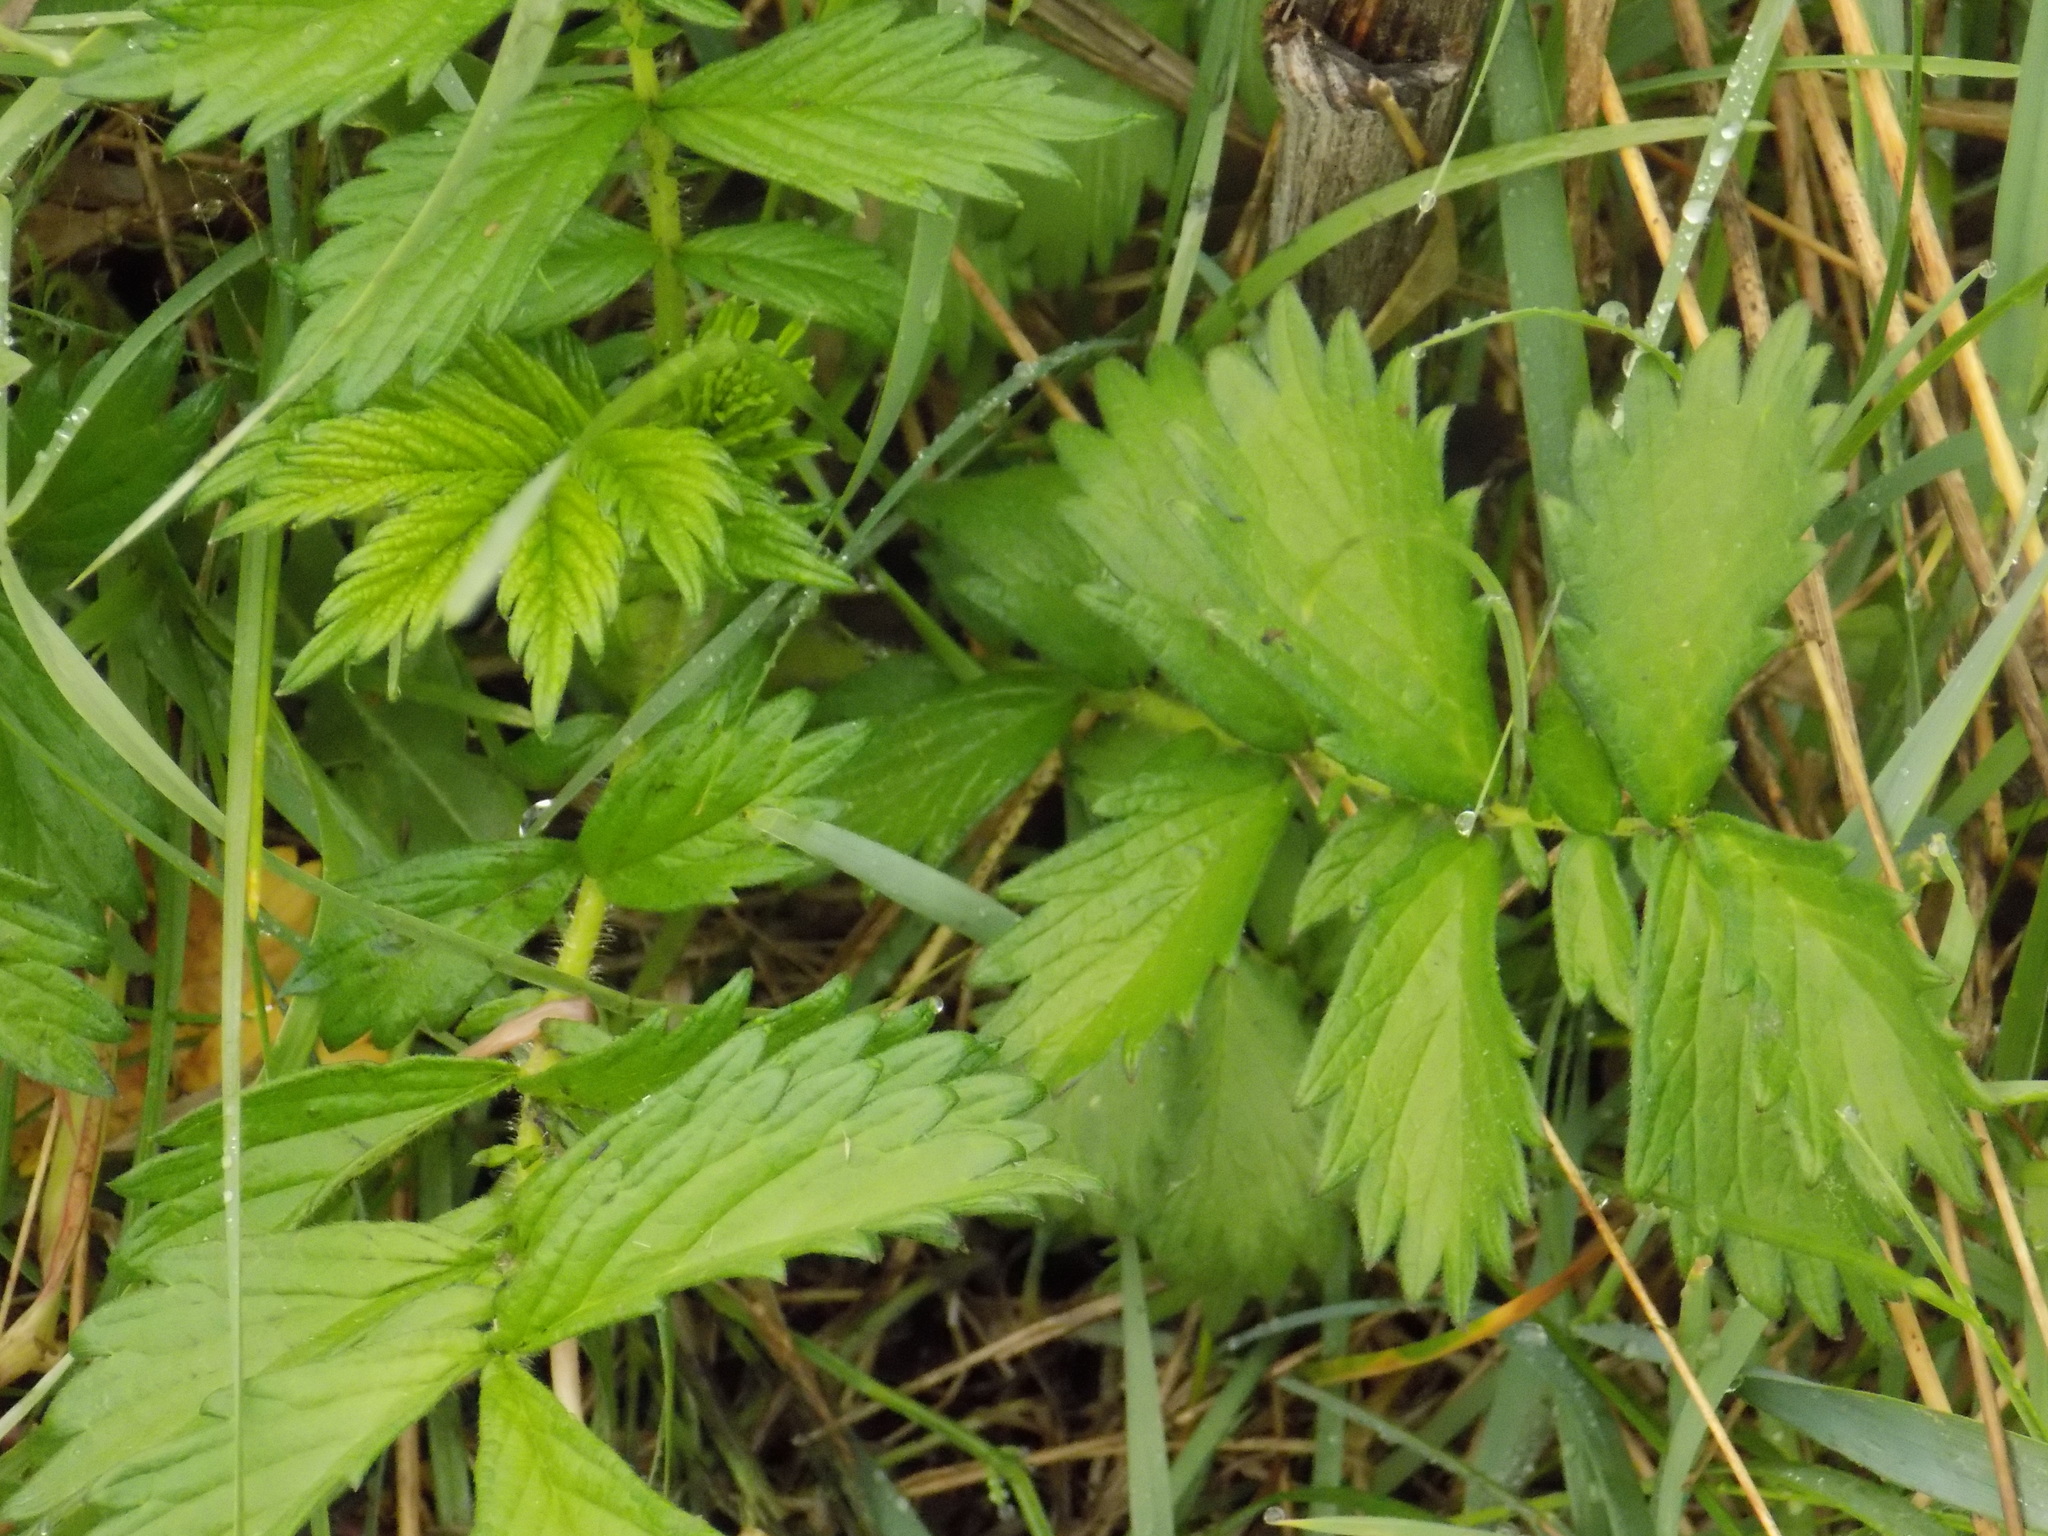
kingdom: Plantae
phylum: Tracheophyta
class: Magnoliopsida
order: Rosales
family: Rosaceae
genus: Agrimonia
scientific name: Agrimonia pilosa
